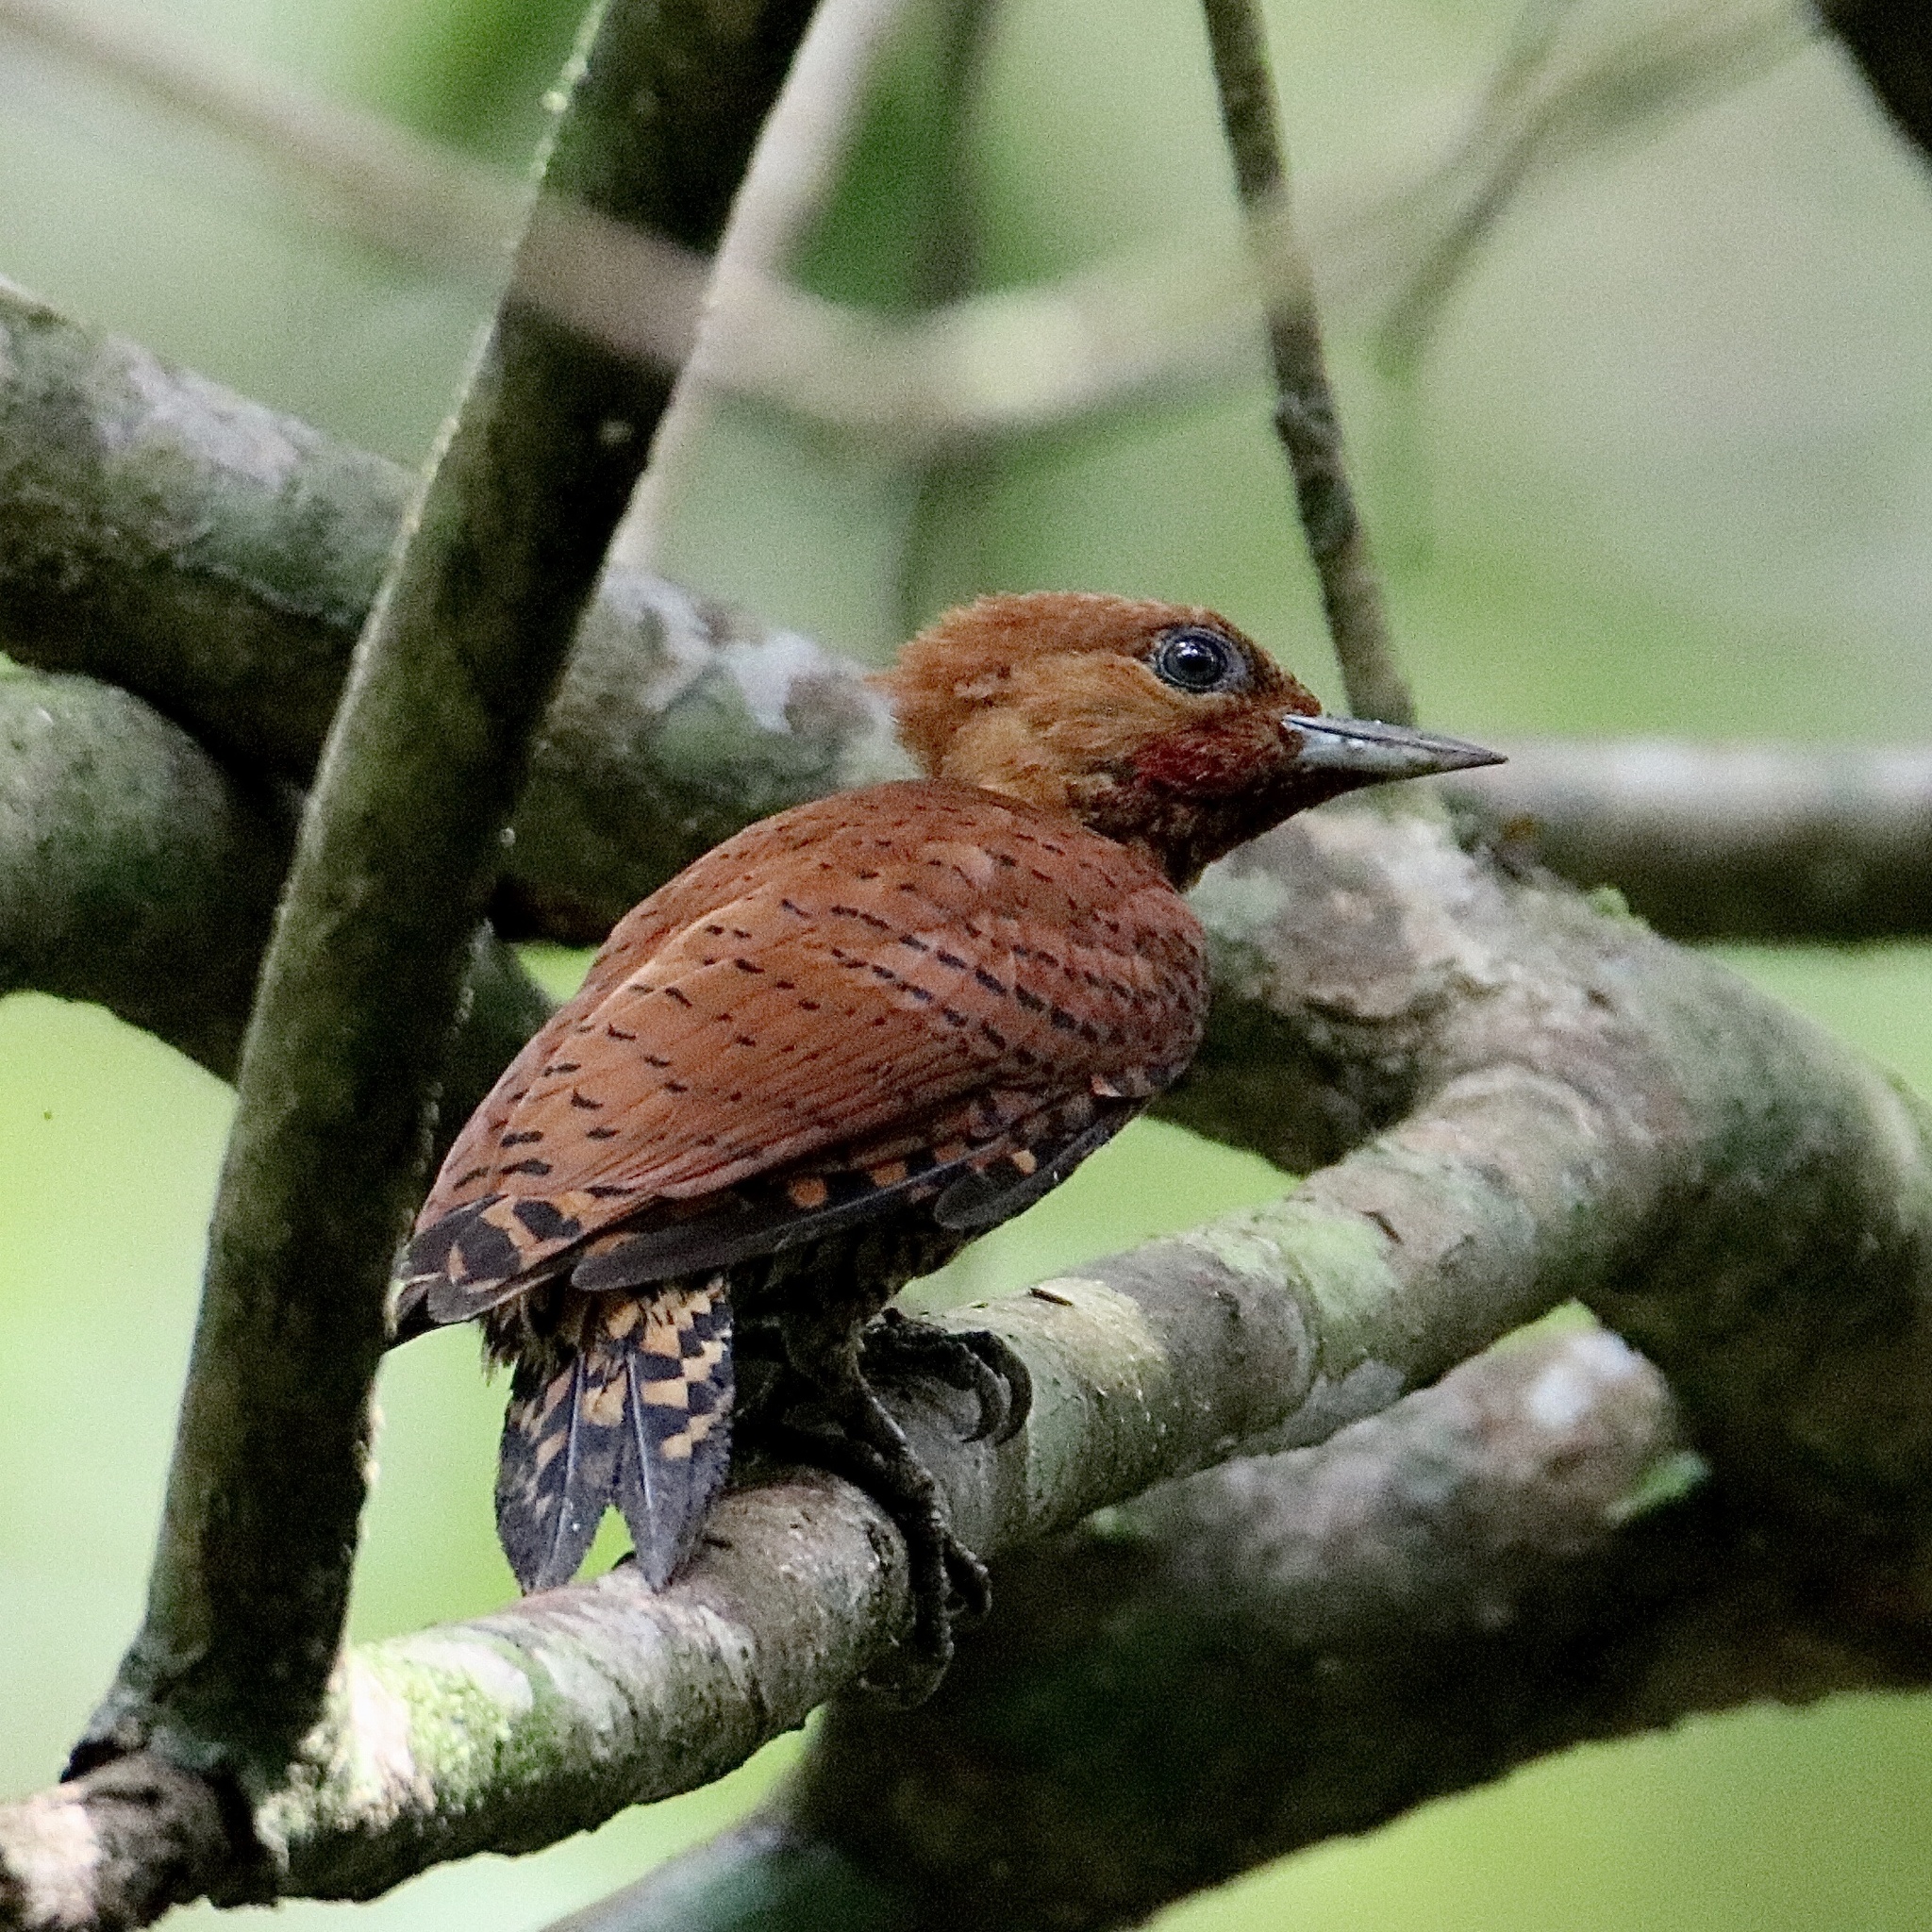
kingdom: Animalia
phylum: Chordata
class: Aves
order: Piciformes
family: Picidae
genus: Celeus
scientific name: Celeus loricatus
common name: Cinnamon woodpecker
